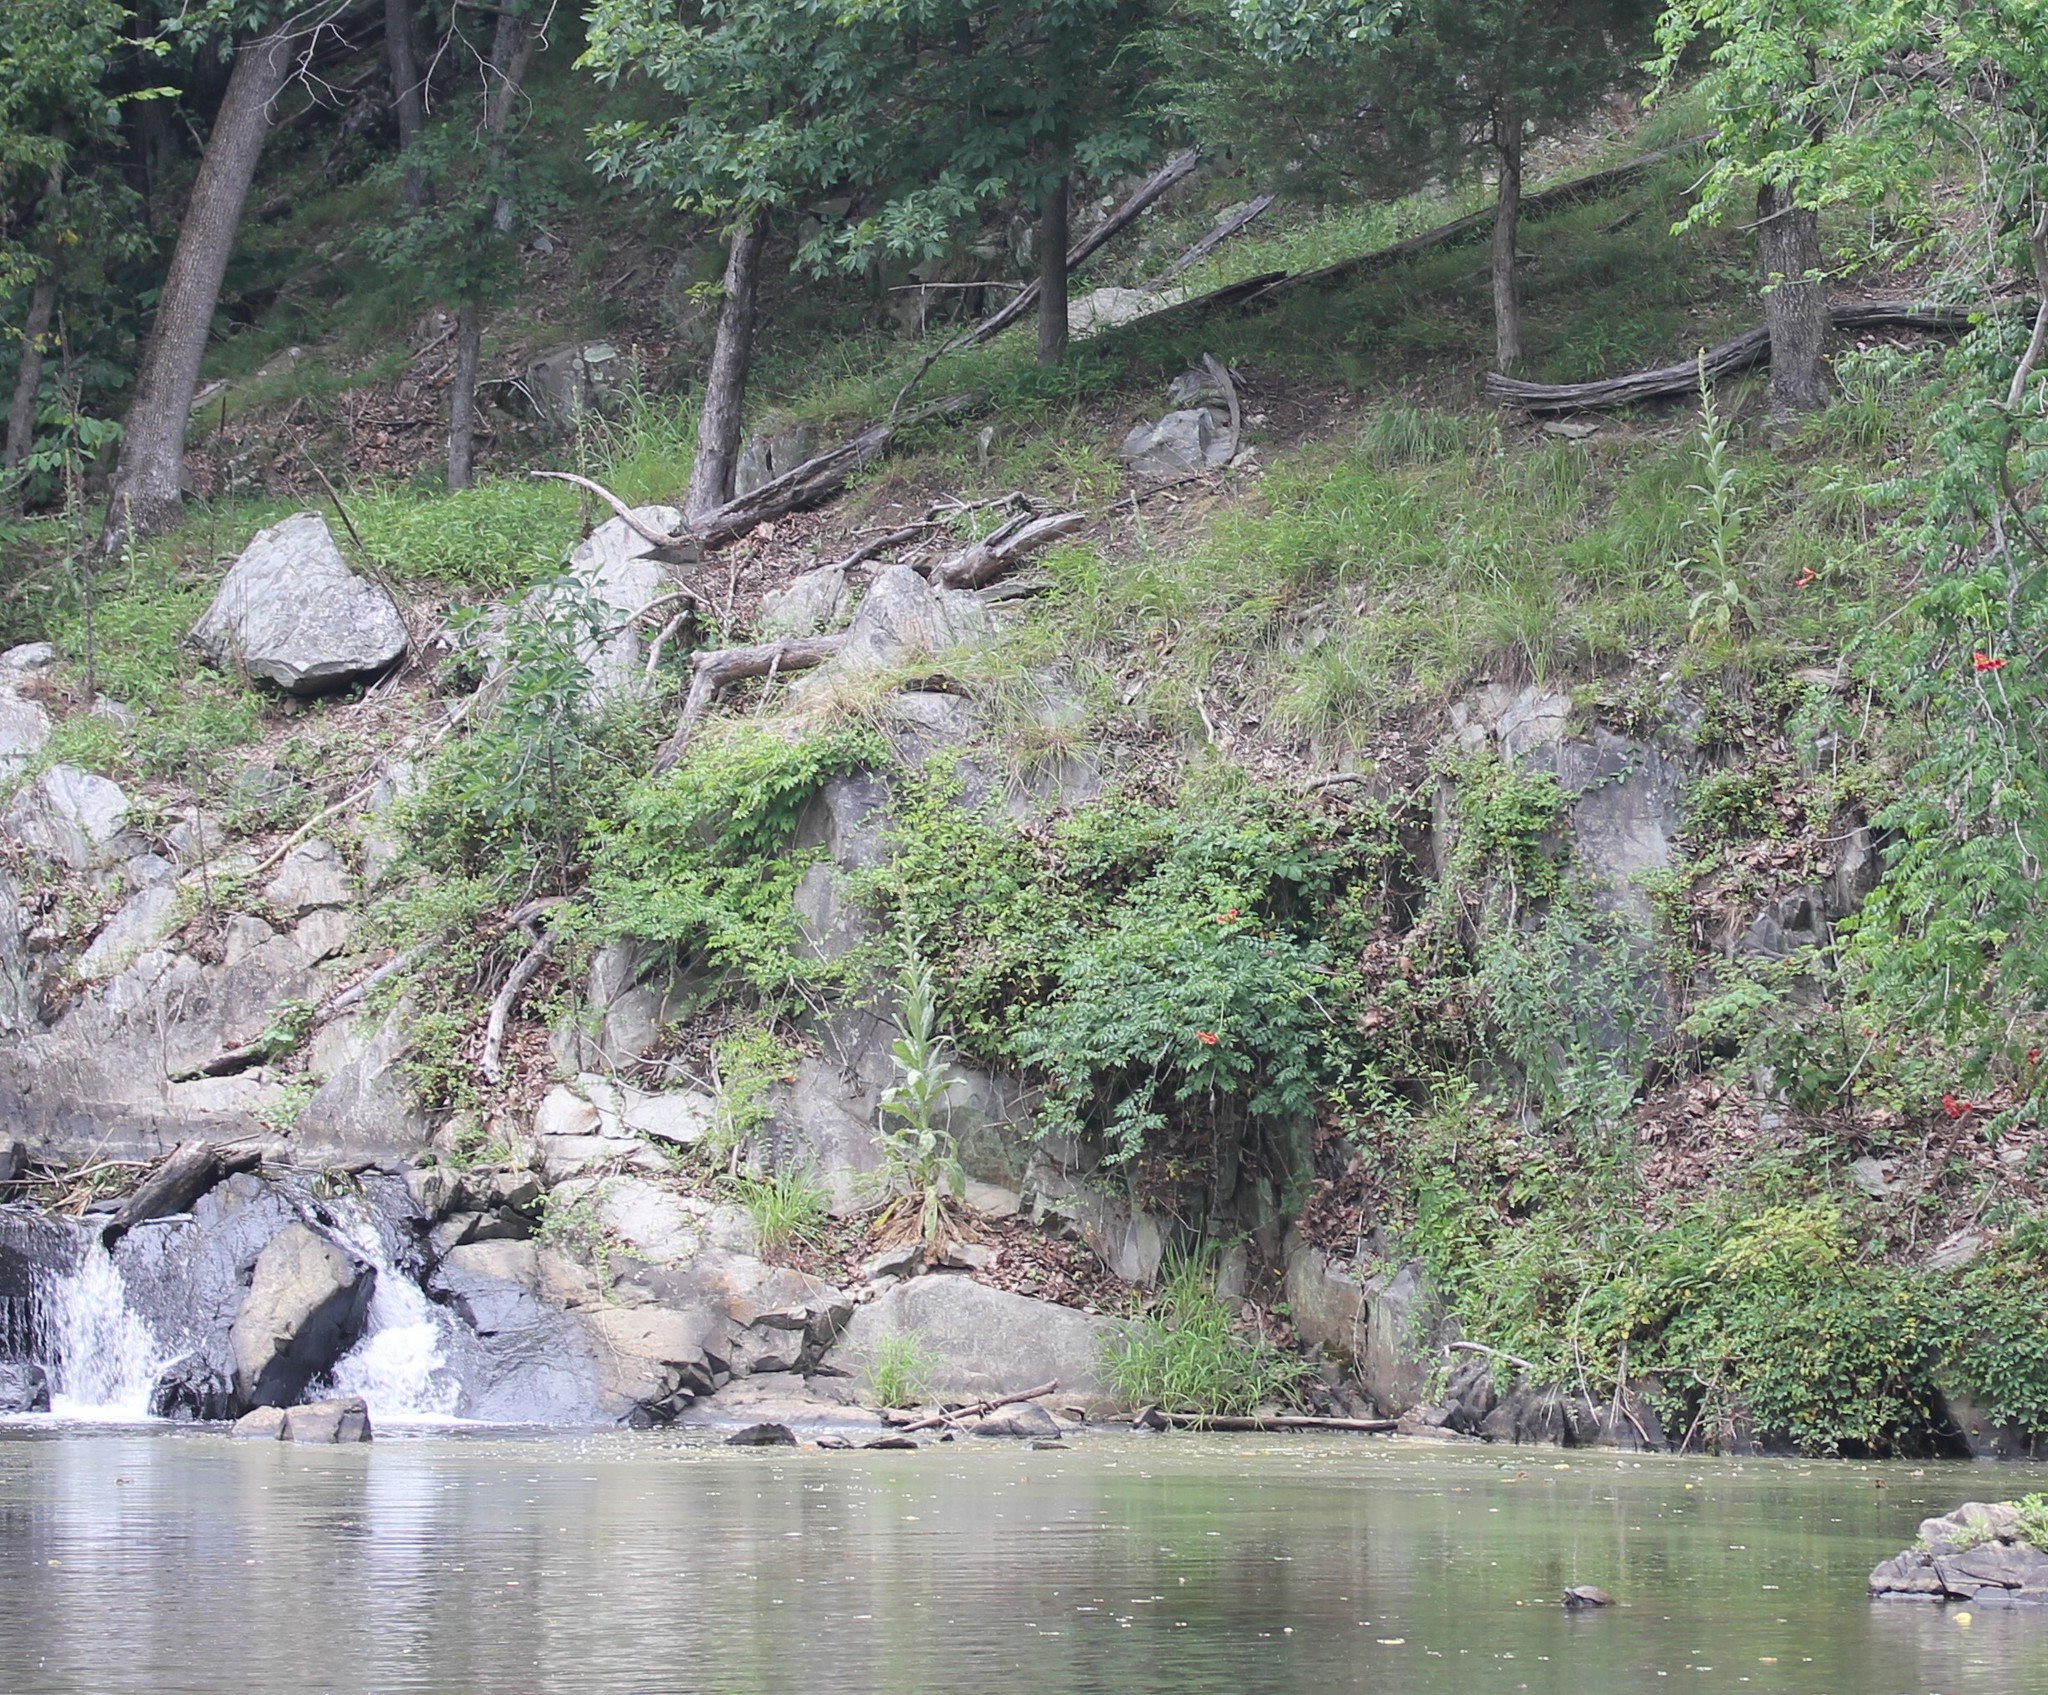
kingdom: Plantae
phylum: Tracheophyta
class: Magnoliopsida
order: Lamiales
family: Scrophulariaceae
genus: Verbascum
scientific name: Verbascum thapsus
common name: Common mullein
